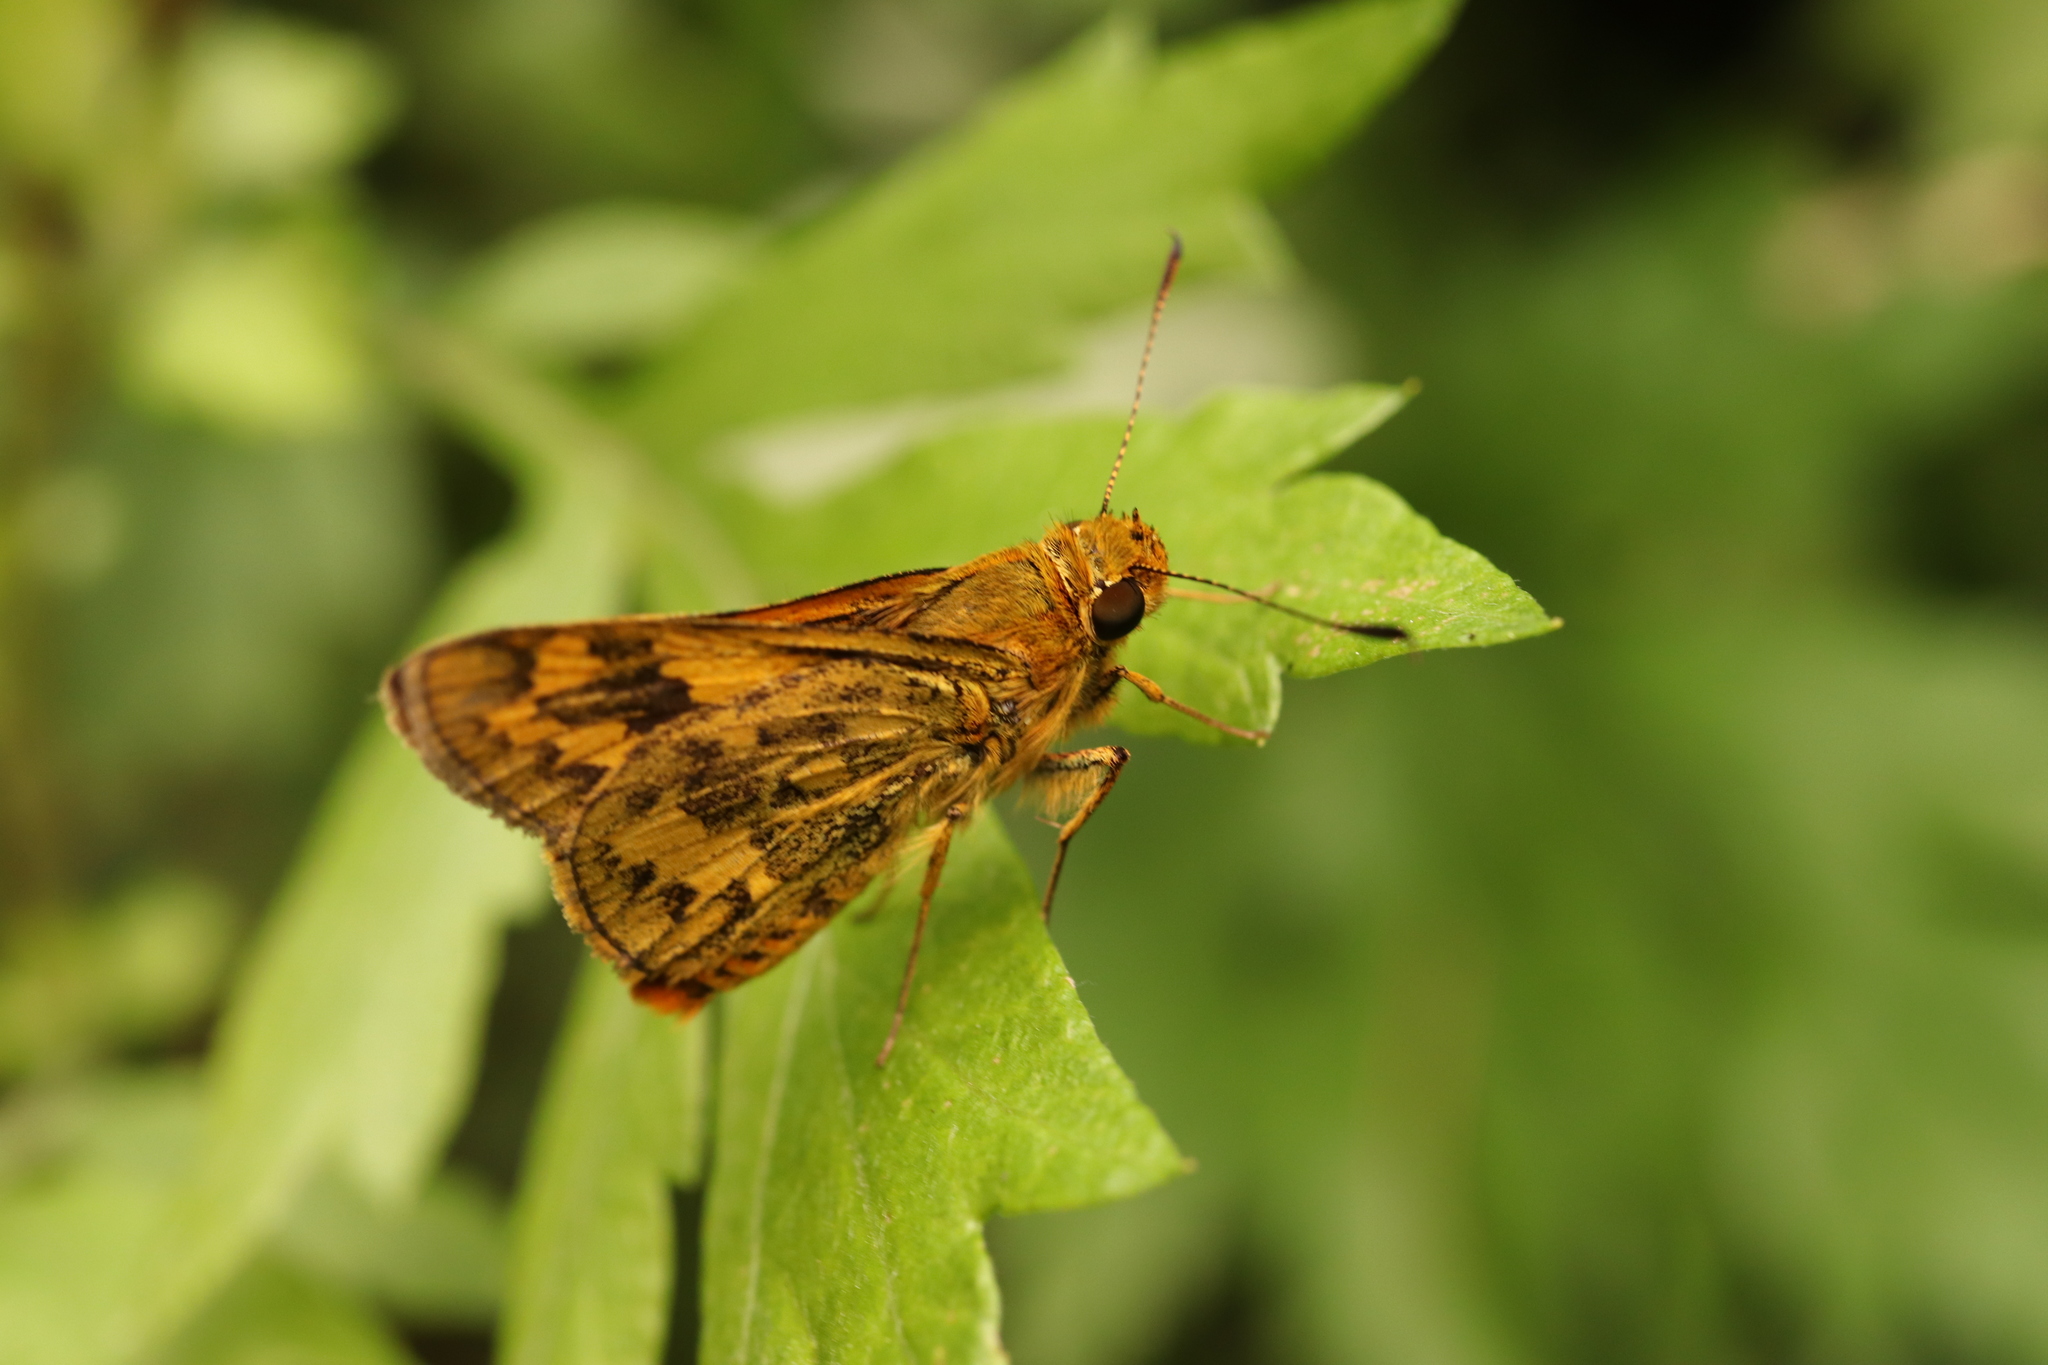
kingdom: Animalia
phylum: Arthropoda
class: Insecta
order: Lepidoptera
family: Hesperiidae
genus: Potanthus
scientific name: Potanthus flava
